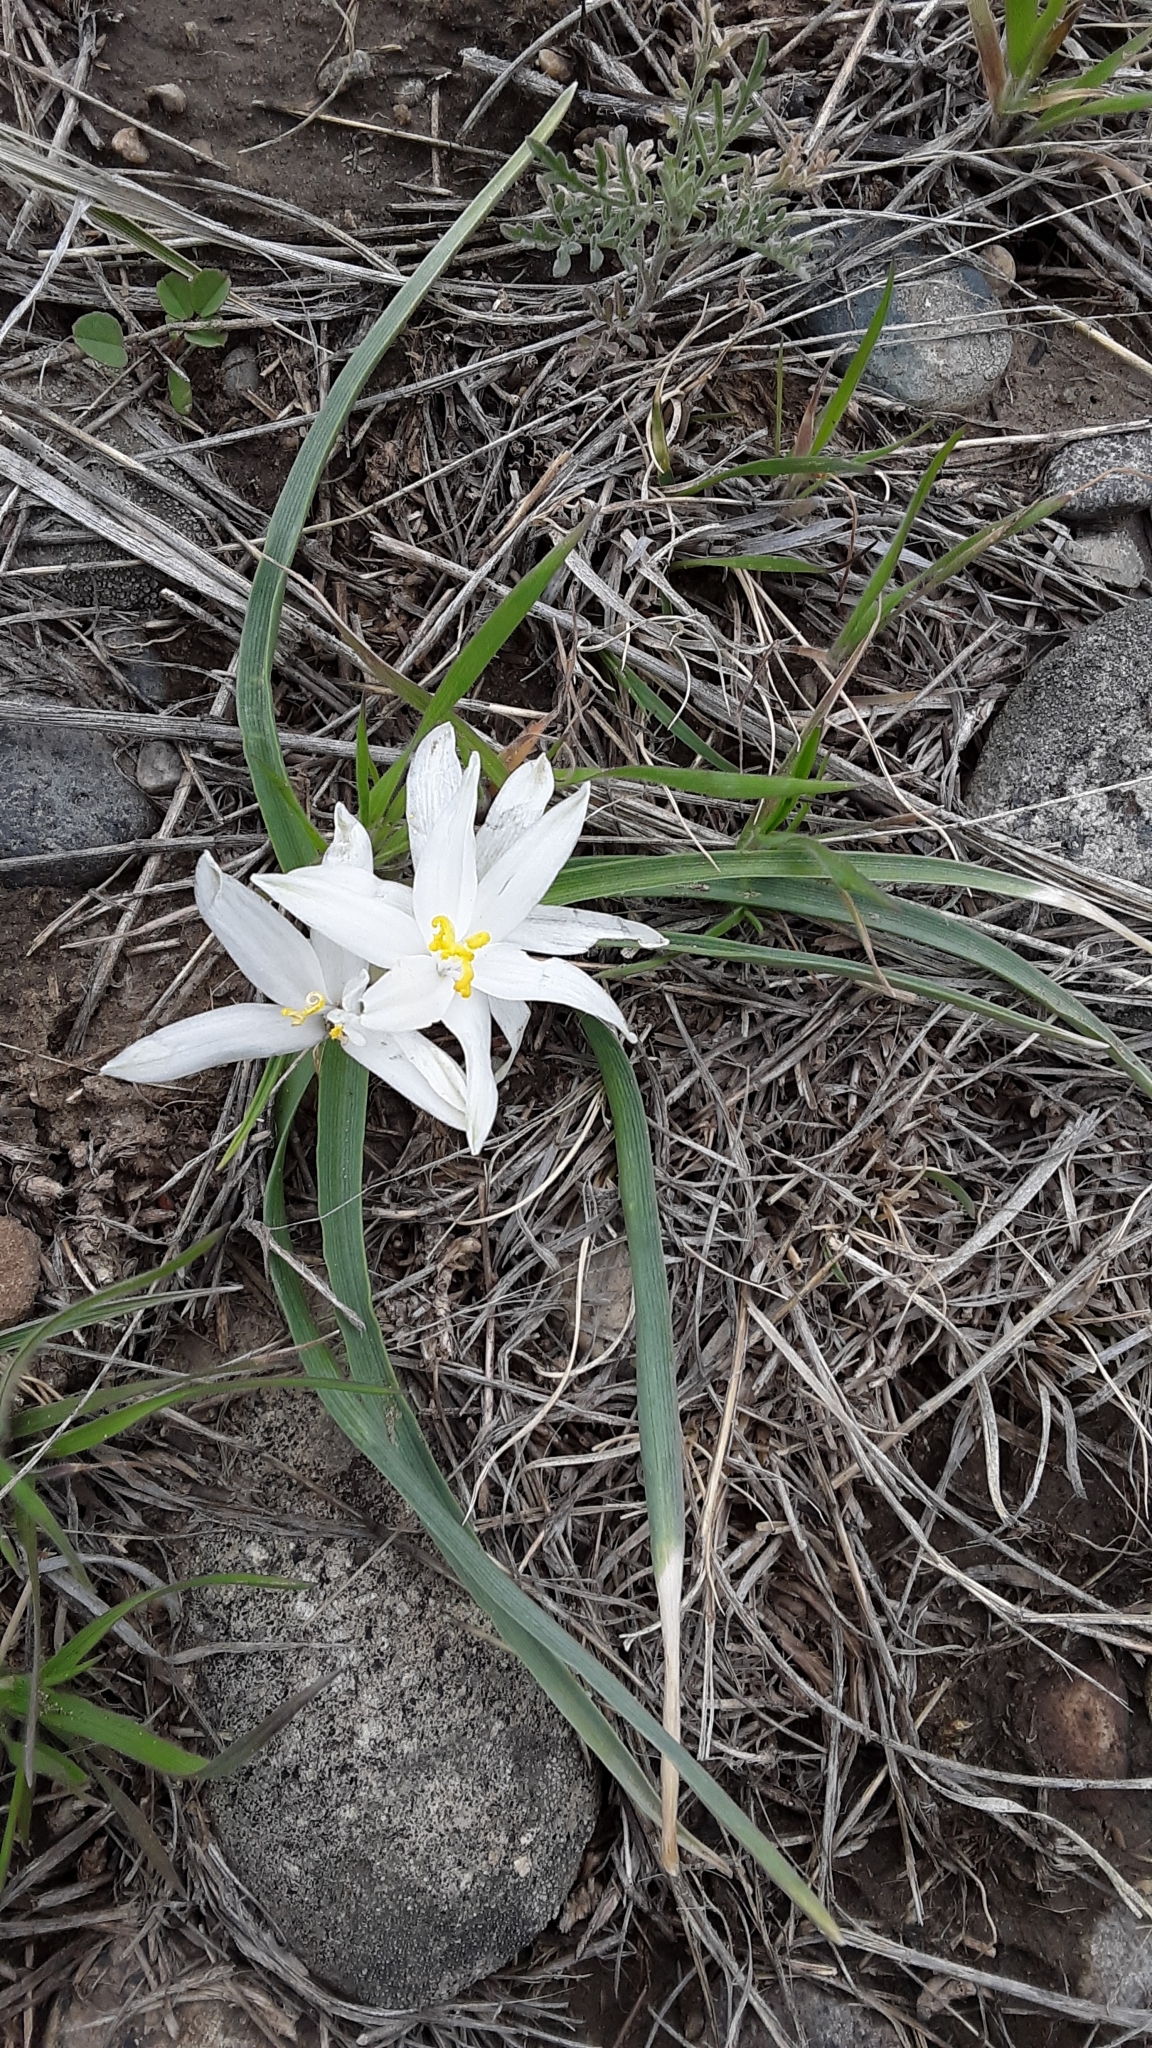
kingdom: Plantae
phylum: Tracheophyta
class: Liliopsida
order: Asparagales
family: Asparagaceae
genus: Leucocrinum
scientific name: Leucocrinum montanum
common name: Mountain-lily
